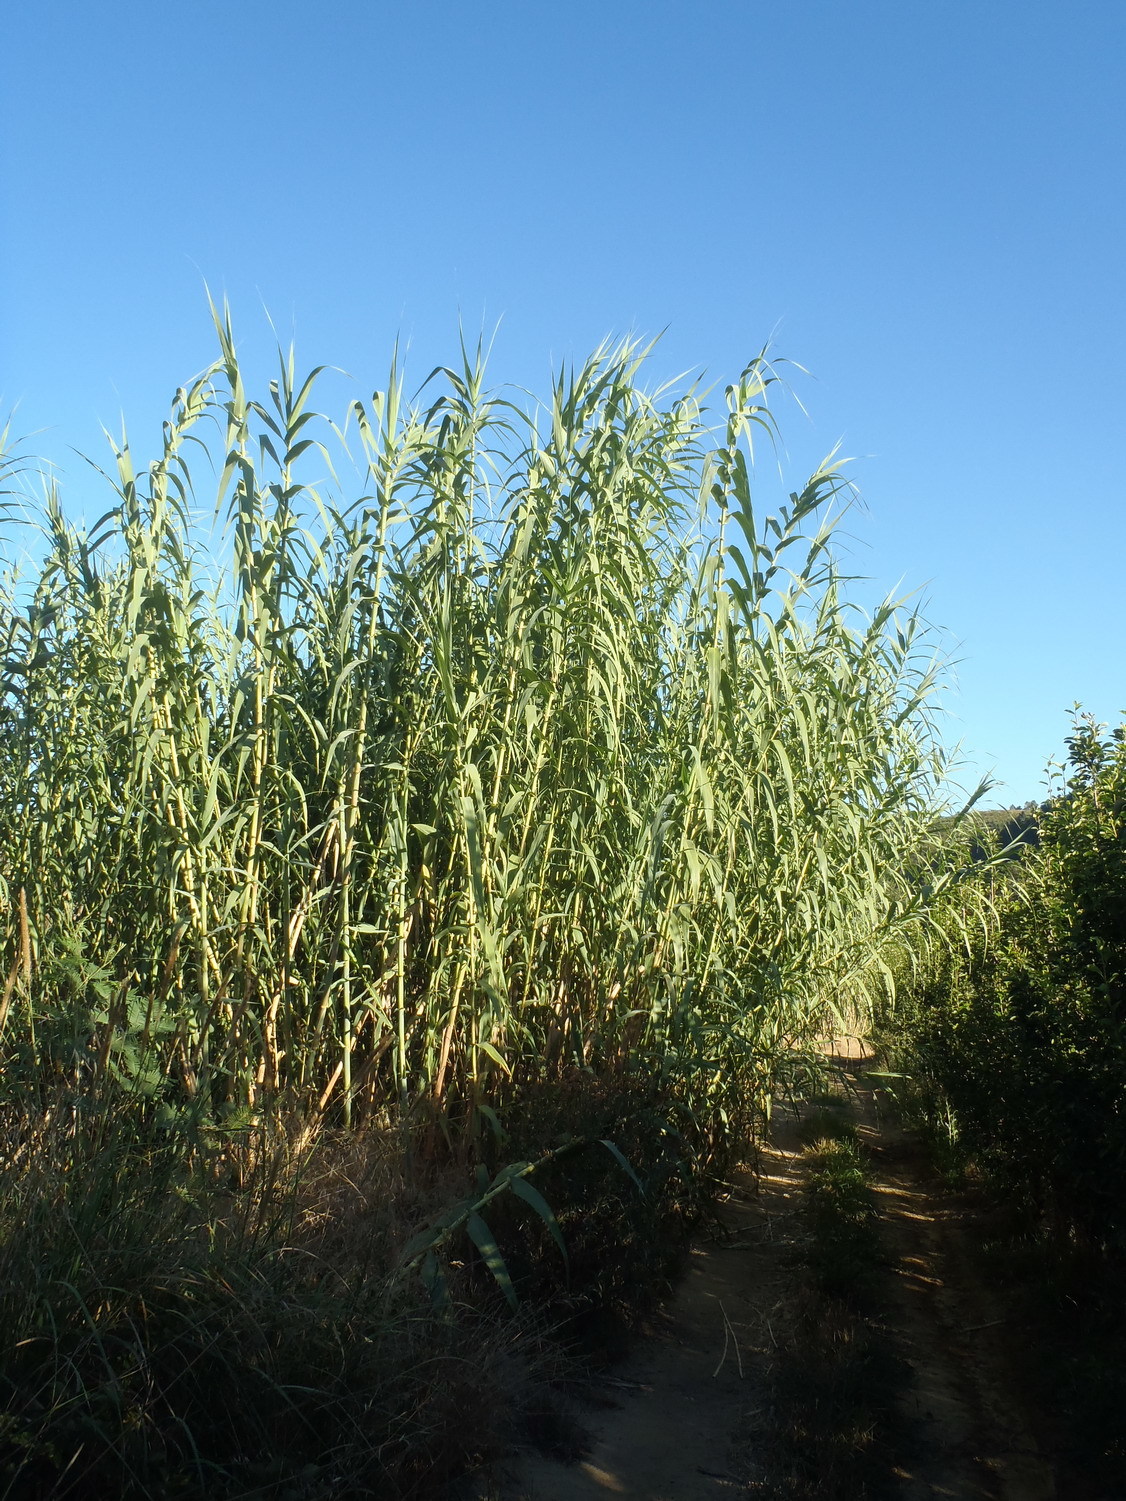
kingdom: Plantae
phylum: Tracheophyta
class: Liliopsida
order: Poales
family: Poaceae
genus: Arundo
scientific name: Arundo donax
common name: Giant reed
